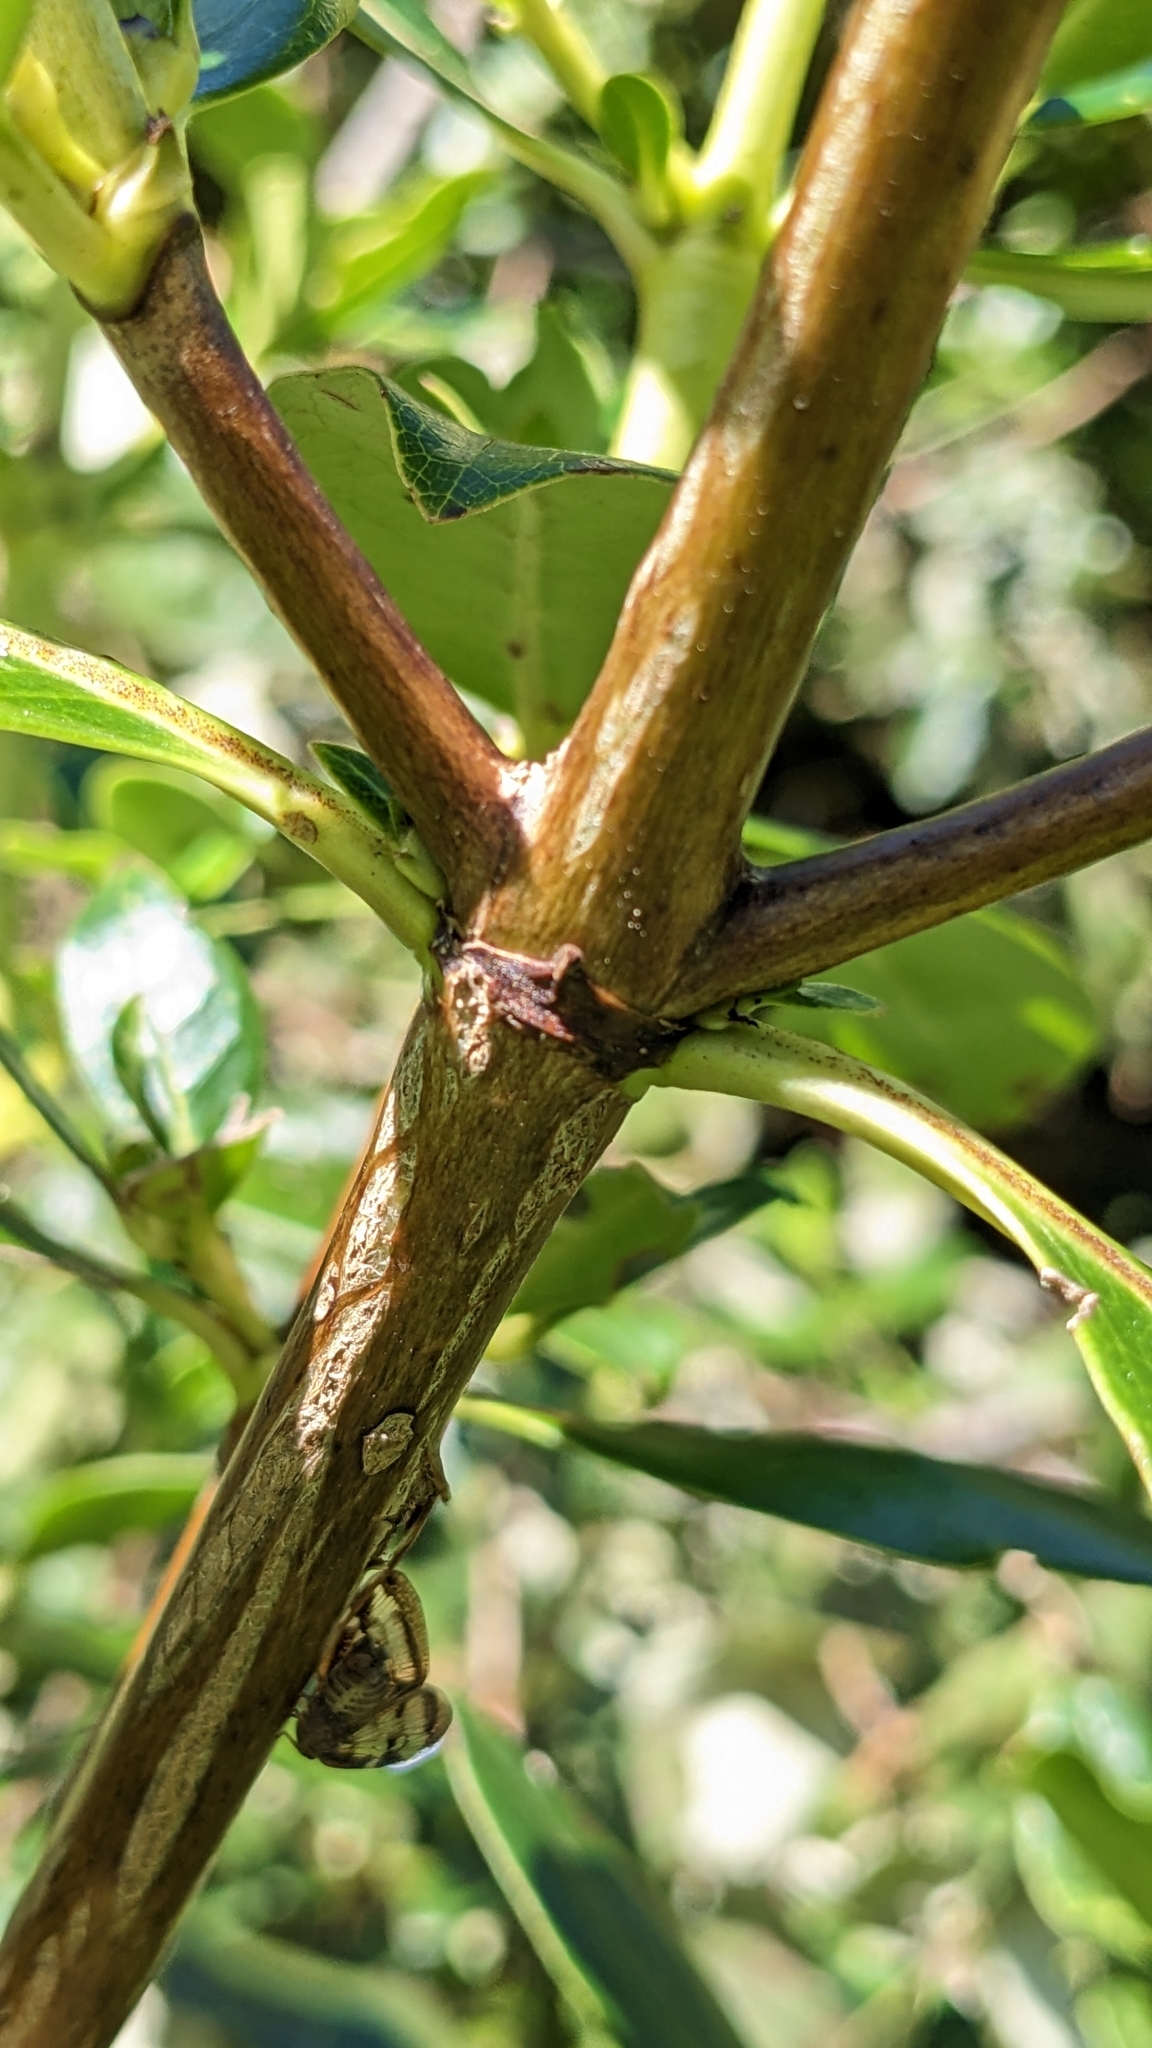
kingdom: Plantae
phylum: Tracheophyta
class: Magnoliopsida
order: Gentianales
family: Rubiaceae
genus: Coprosma
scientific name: Coprosma robusta
